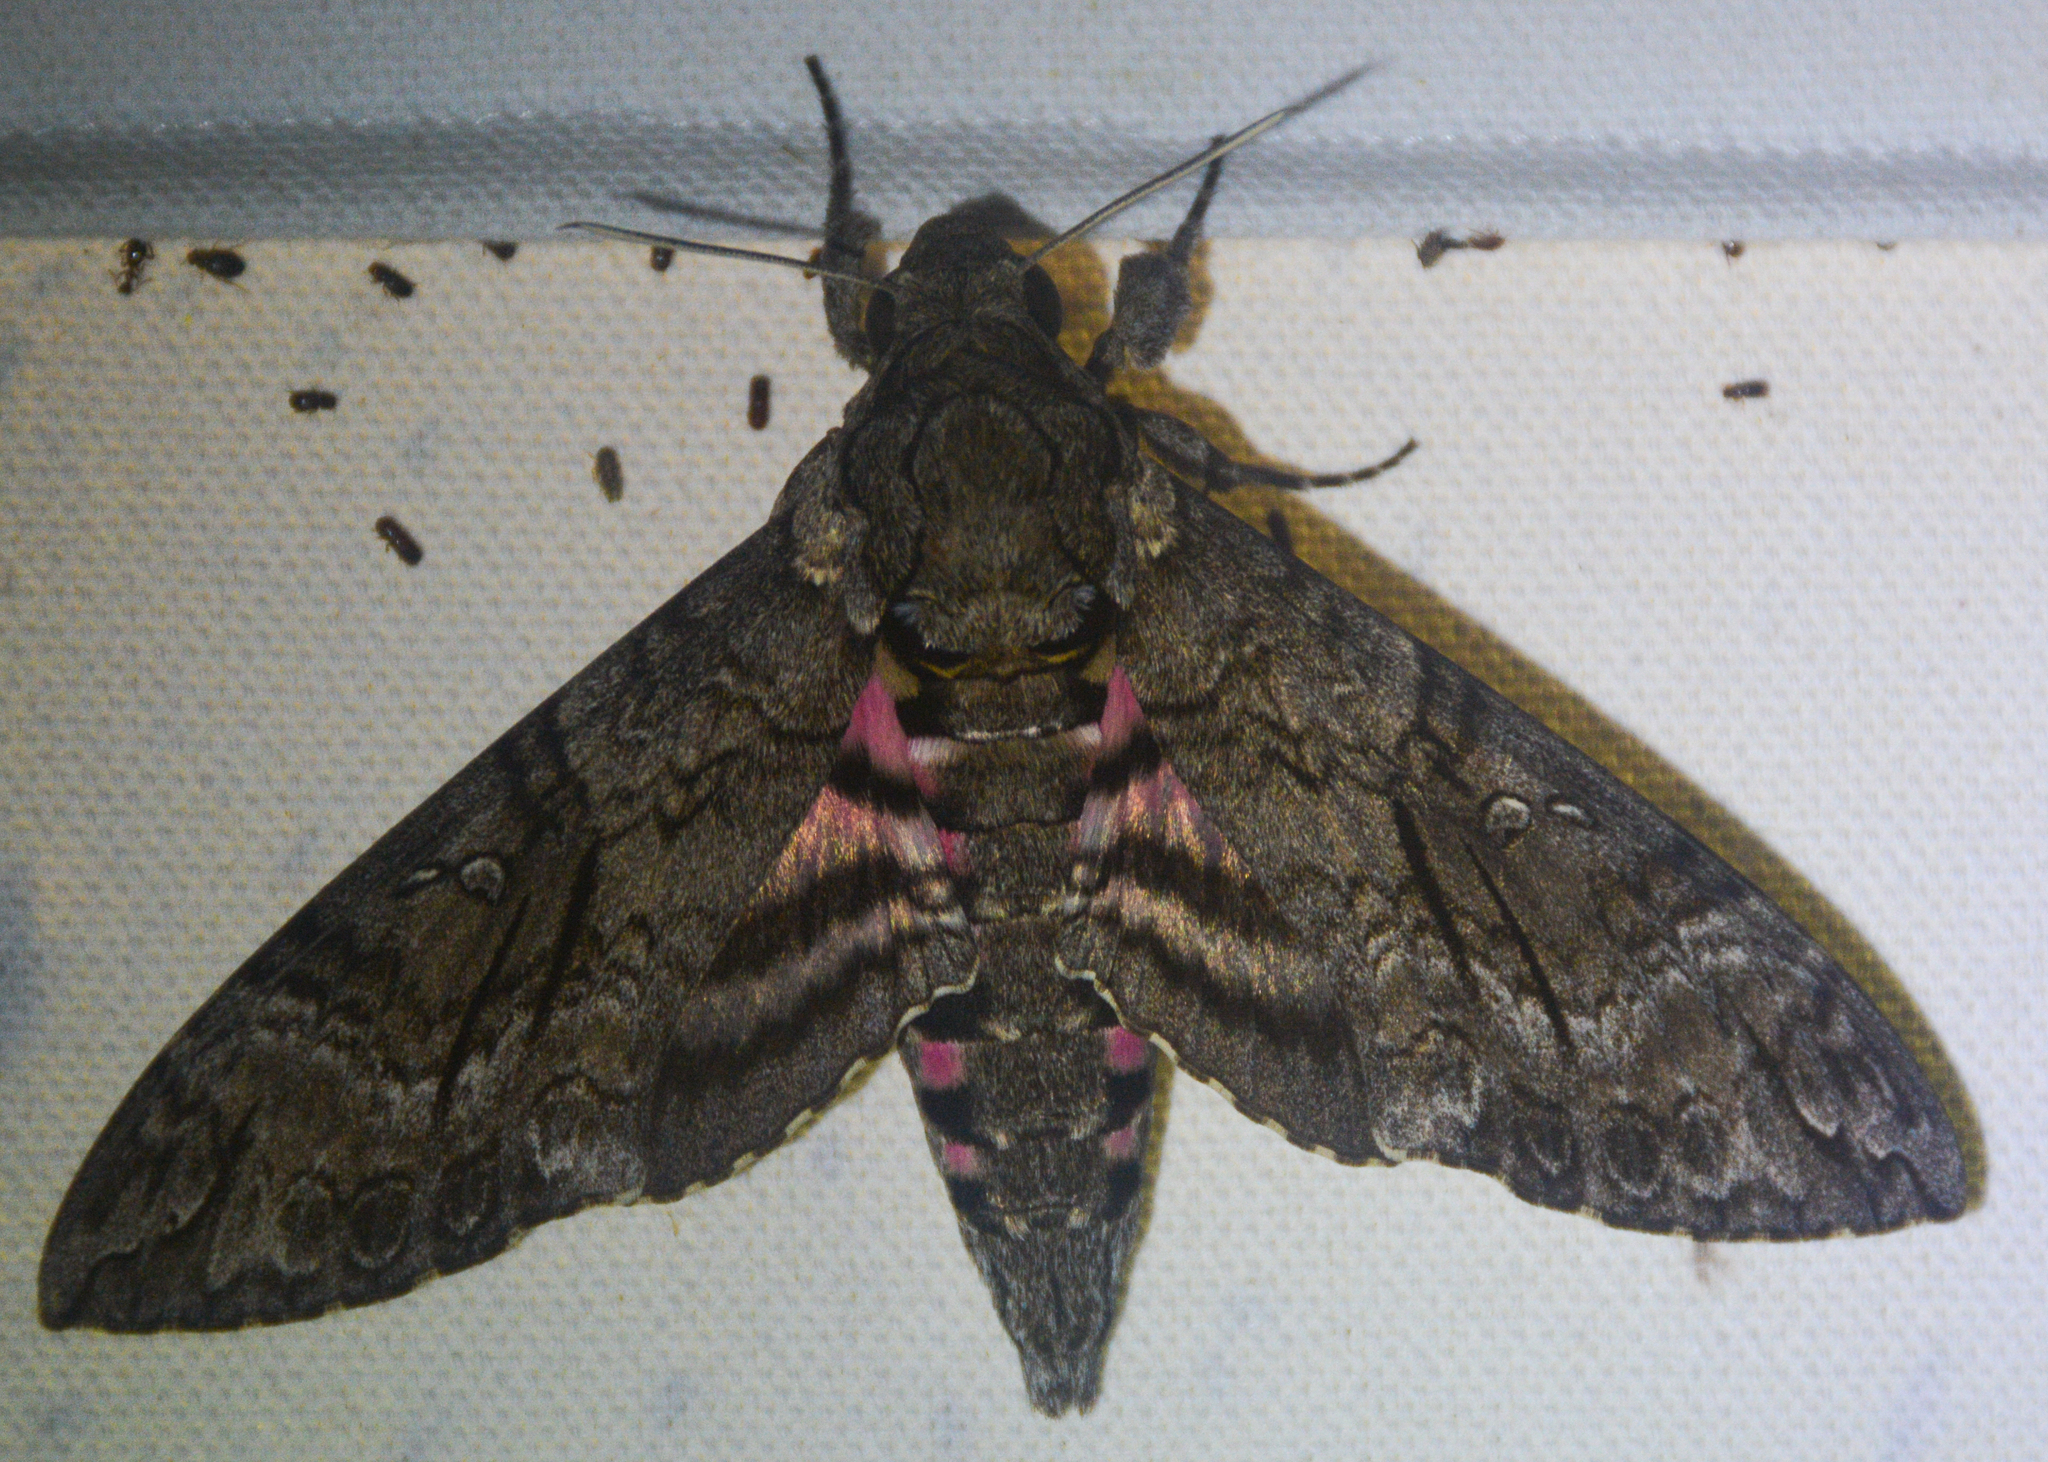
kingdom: Animalia
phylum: Arthropoda
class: Insecta
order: Lepidoptera
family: Sphingidae
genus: Agrius
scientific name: Agrius cingulata
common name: Pink-spotted hawkmoth
